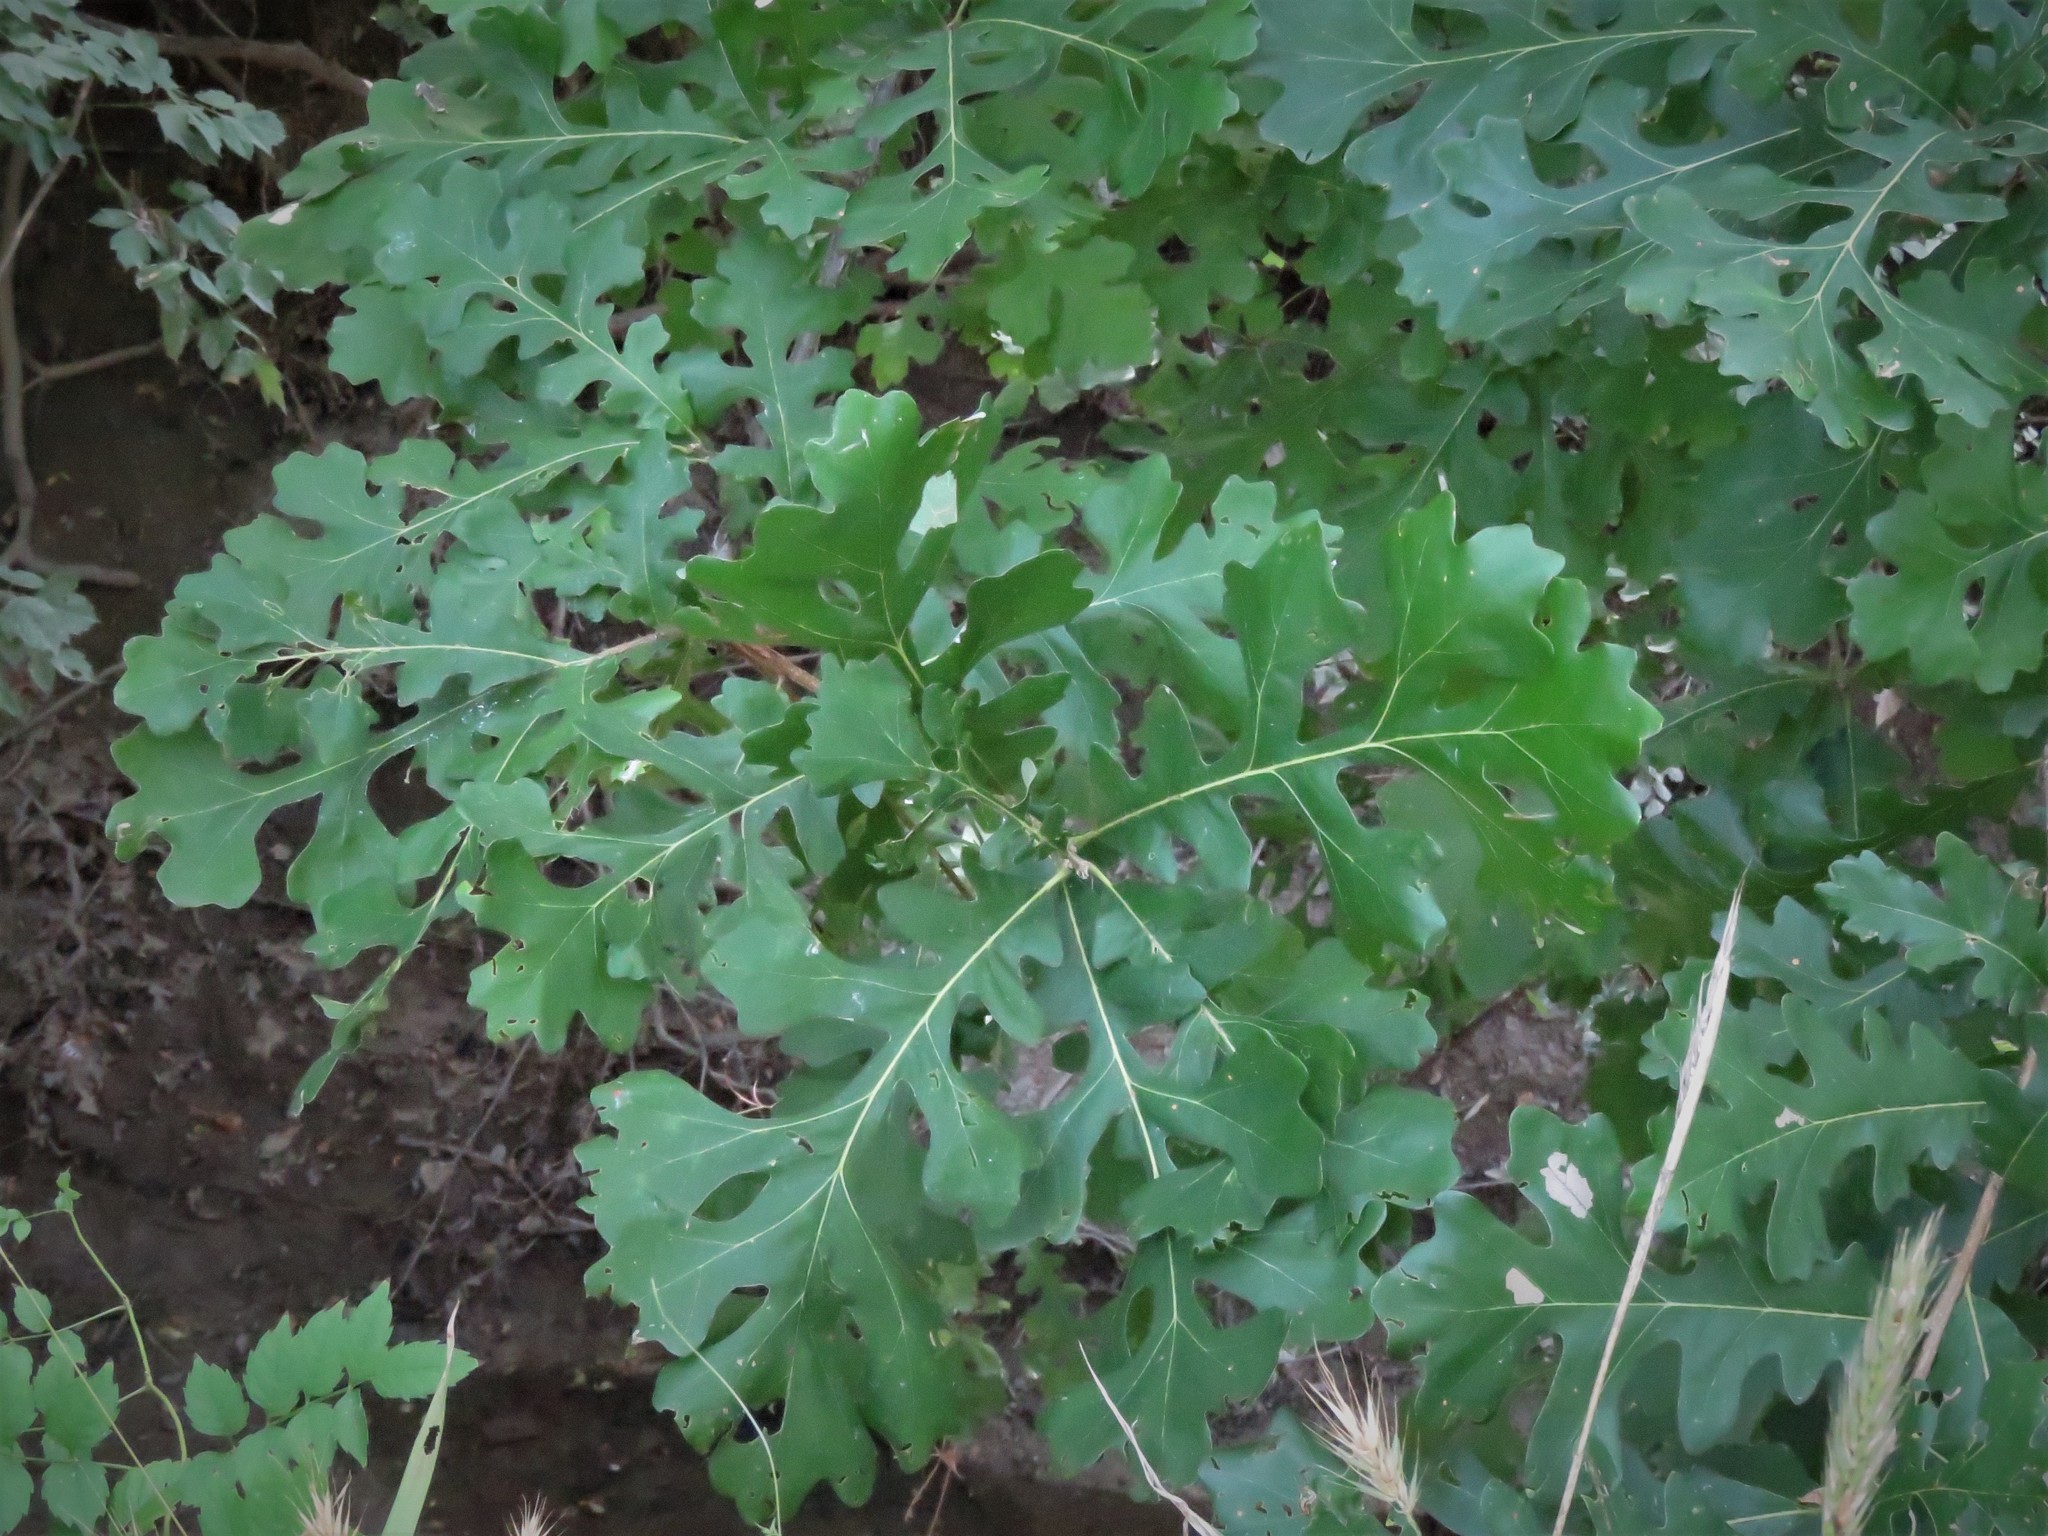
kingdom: Plantae
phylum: Tracheophyta
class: Magnoliopsida
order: Fagales
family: Fagaceae
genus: Quercus
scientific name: Quercus macrocarpa
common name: Bur oak
